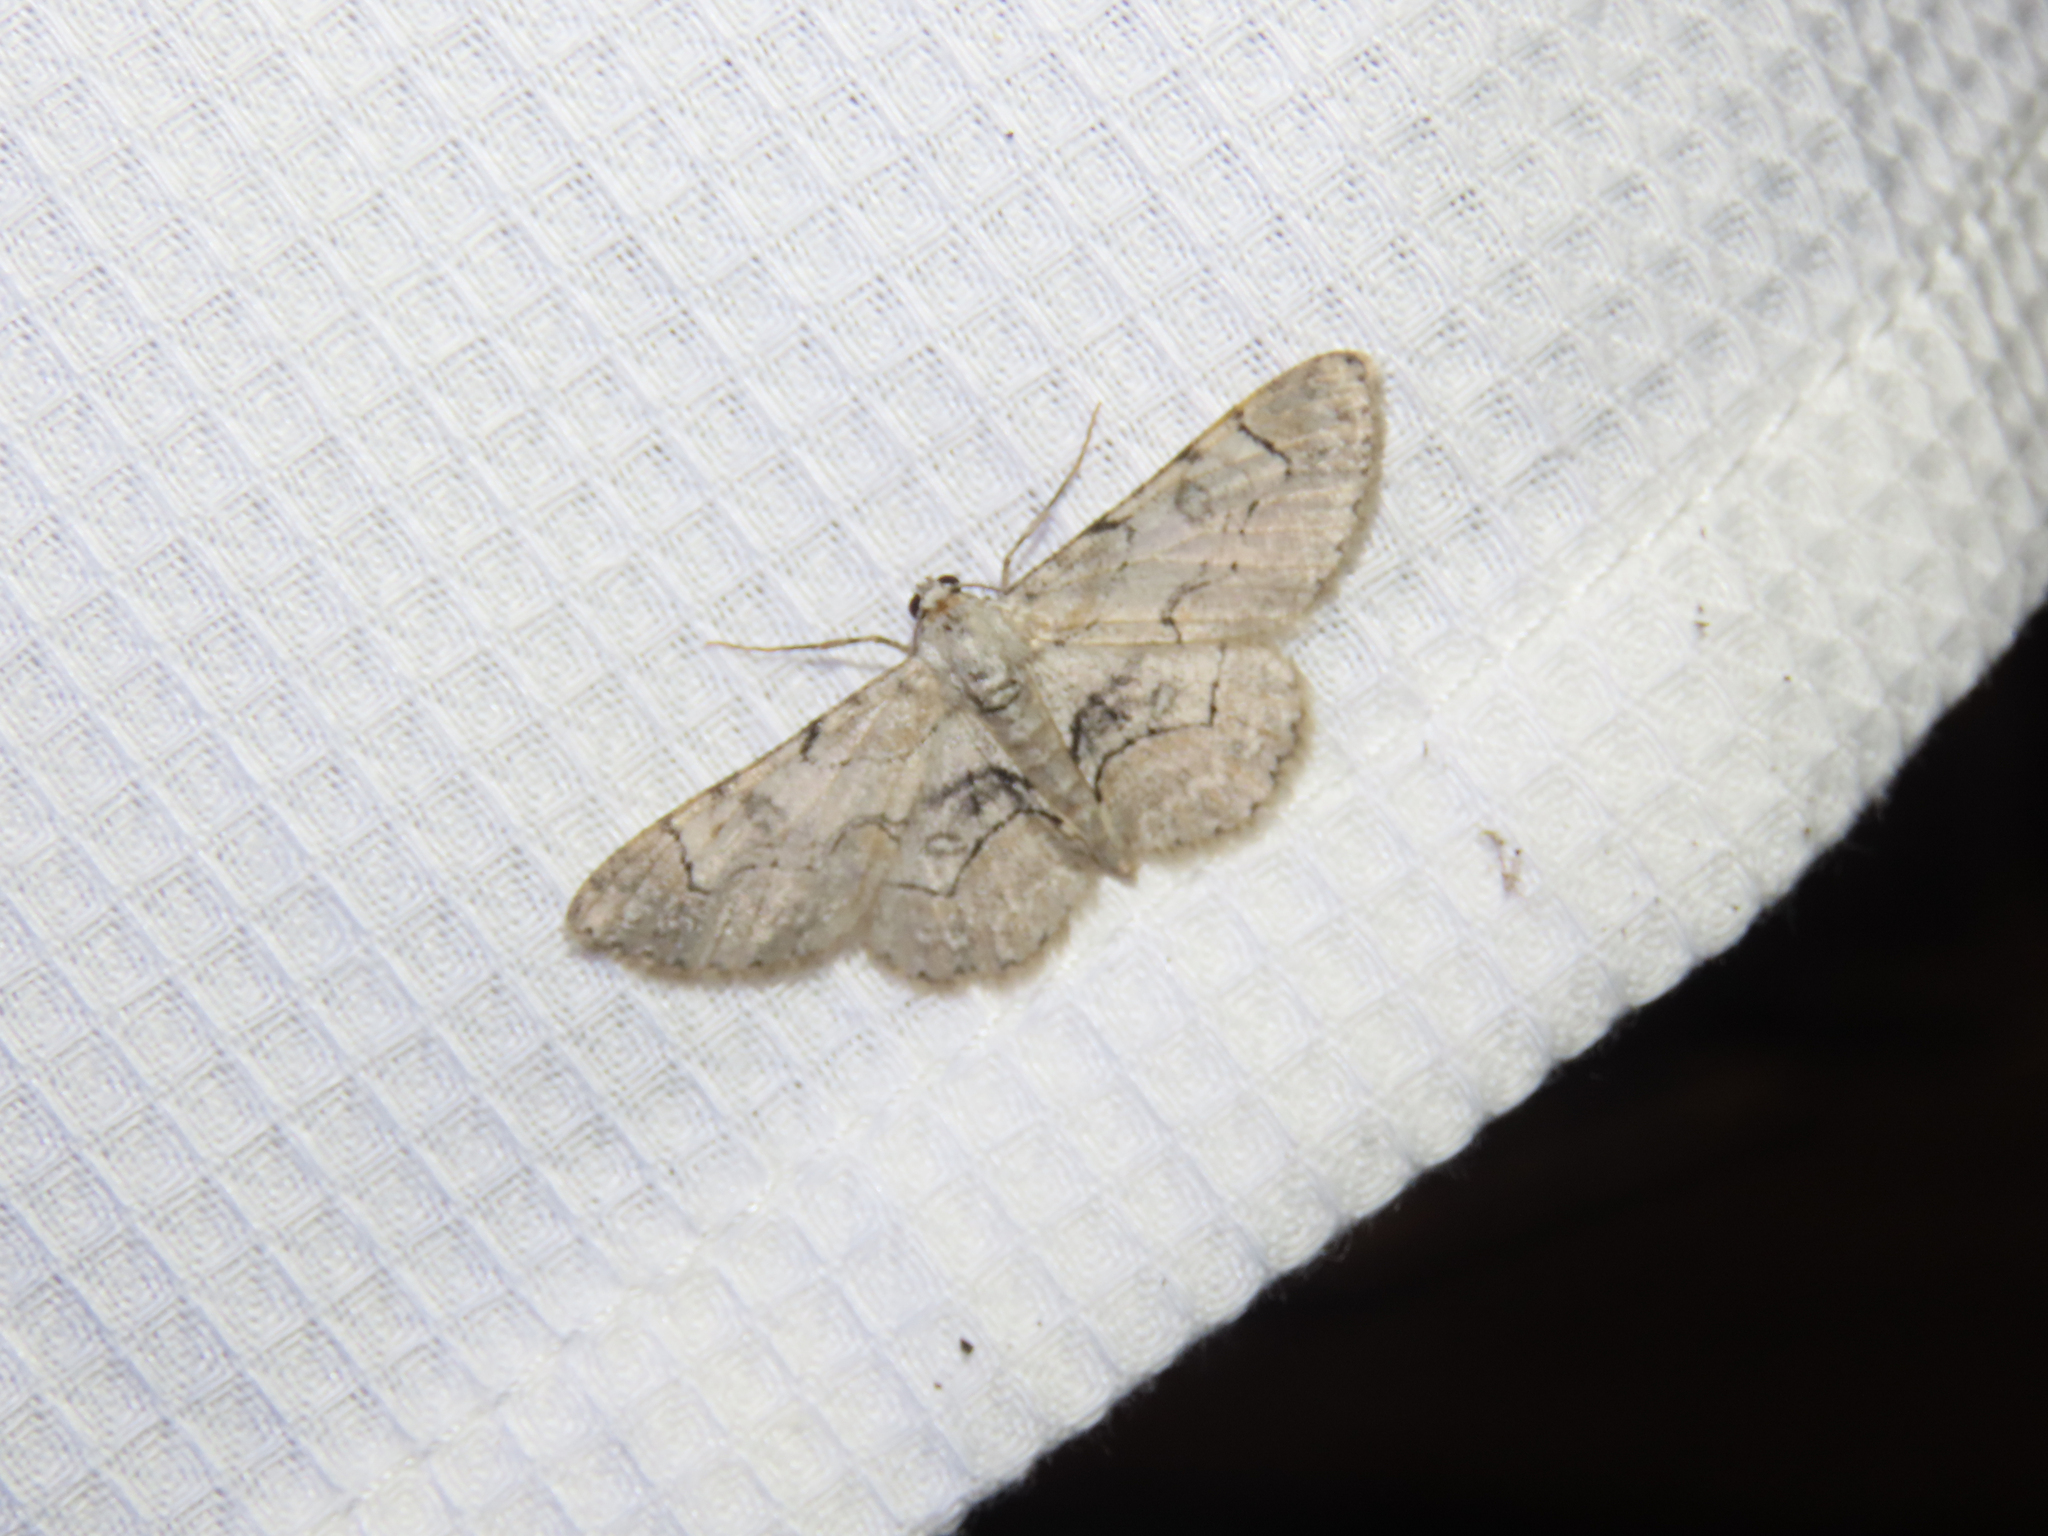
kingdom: Animalia
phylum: Arthropoda
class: Insecta
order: Lepidoptera
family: Geometridae
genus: Iridopsis
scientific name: Iridopsis larvaria
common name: Bent-line gray
